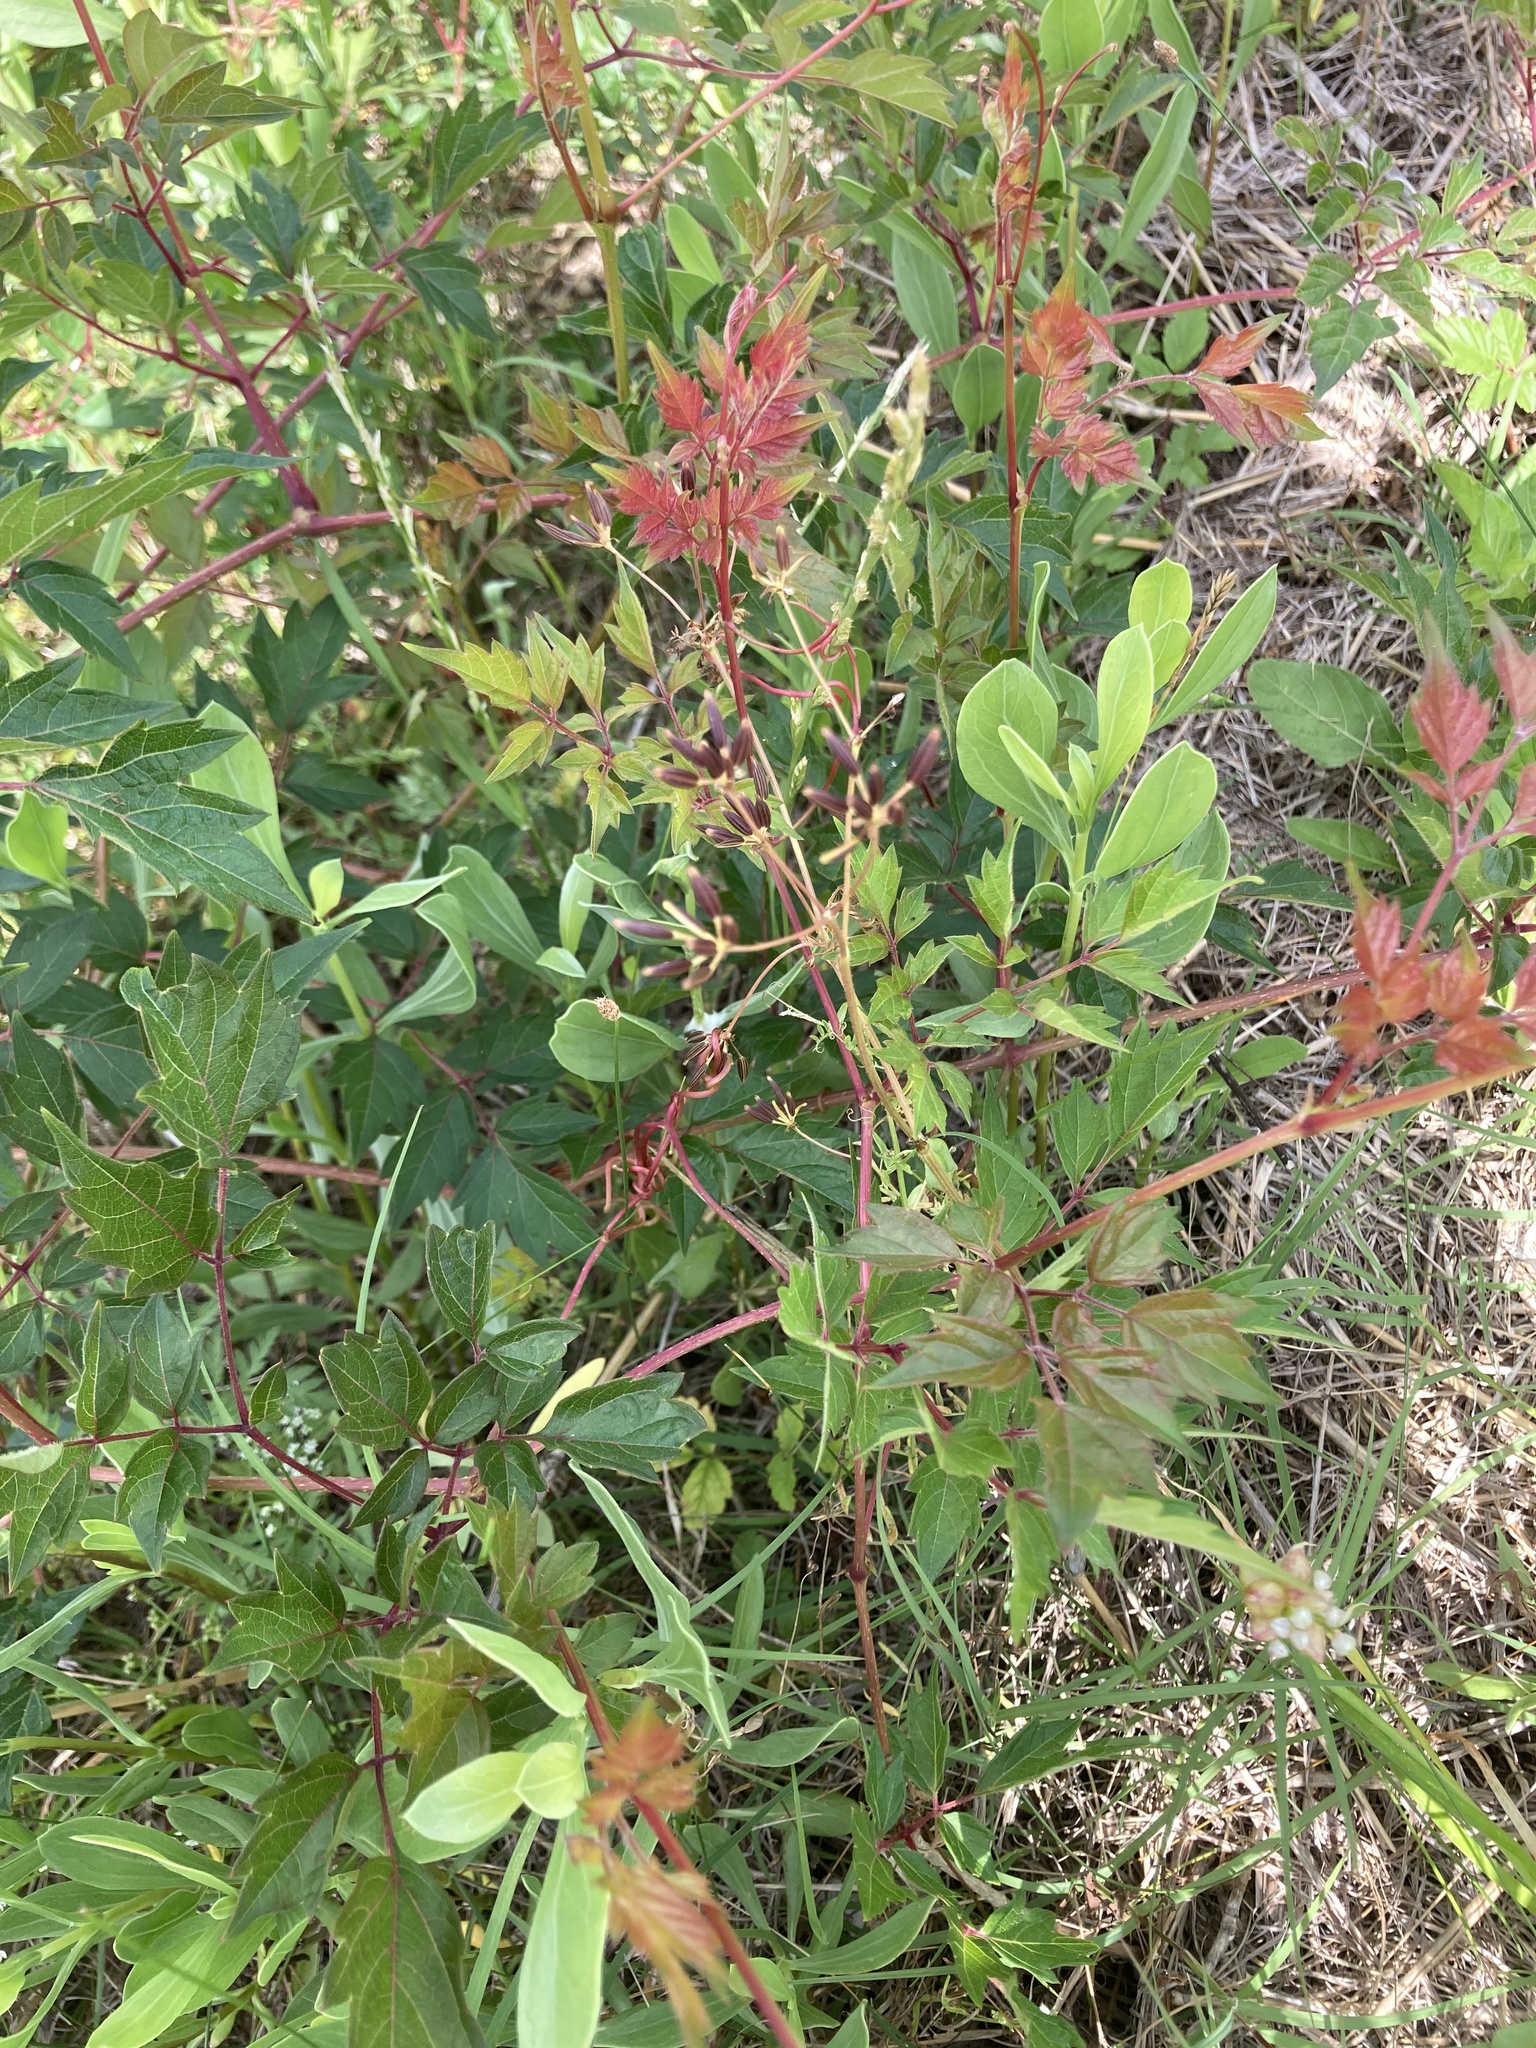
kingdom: Plantae
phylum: Tracheophyta
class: Magnoliopsida
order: Vitales
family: Vitaceae
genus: Nekemias
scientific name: Nekemias arborea
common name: Peppervine
